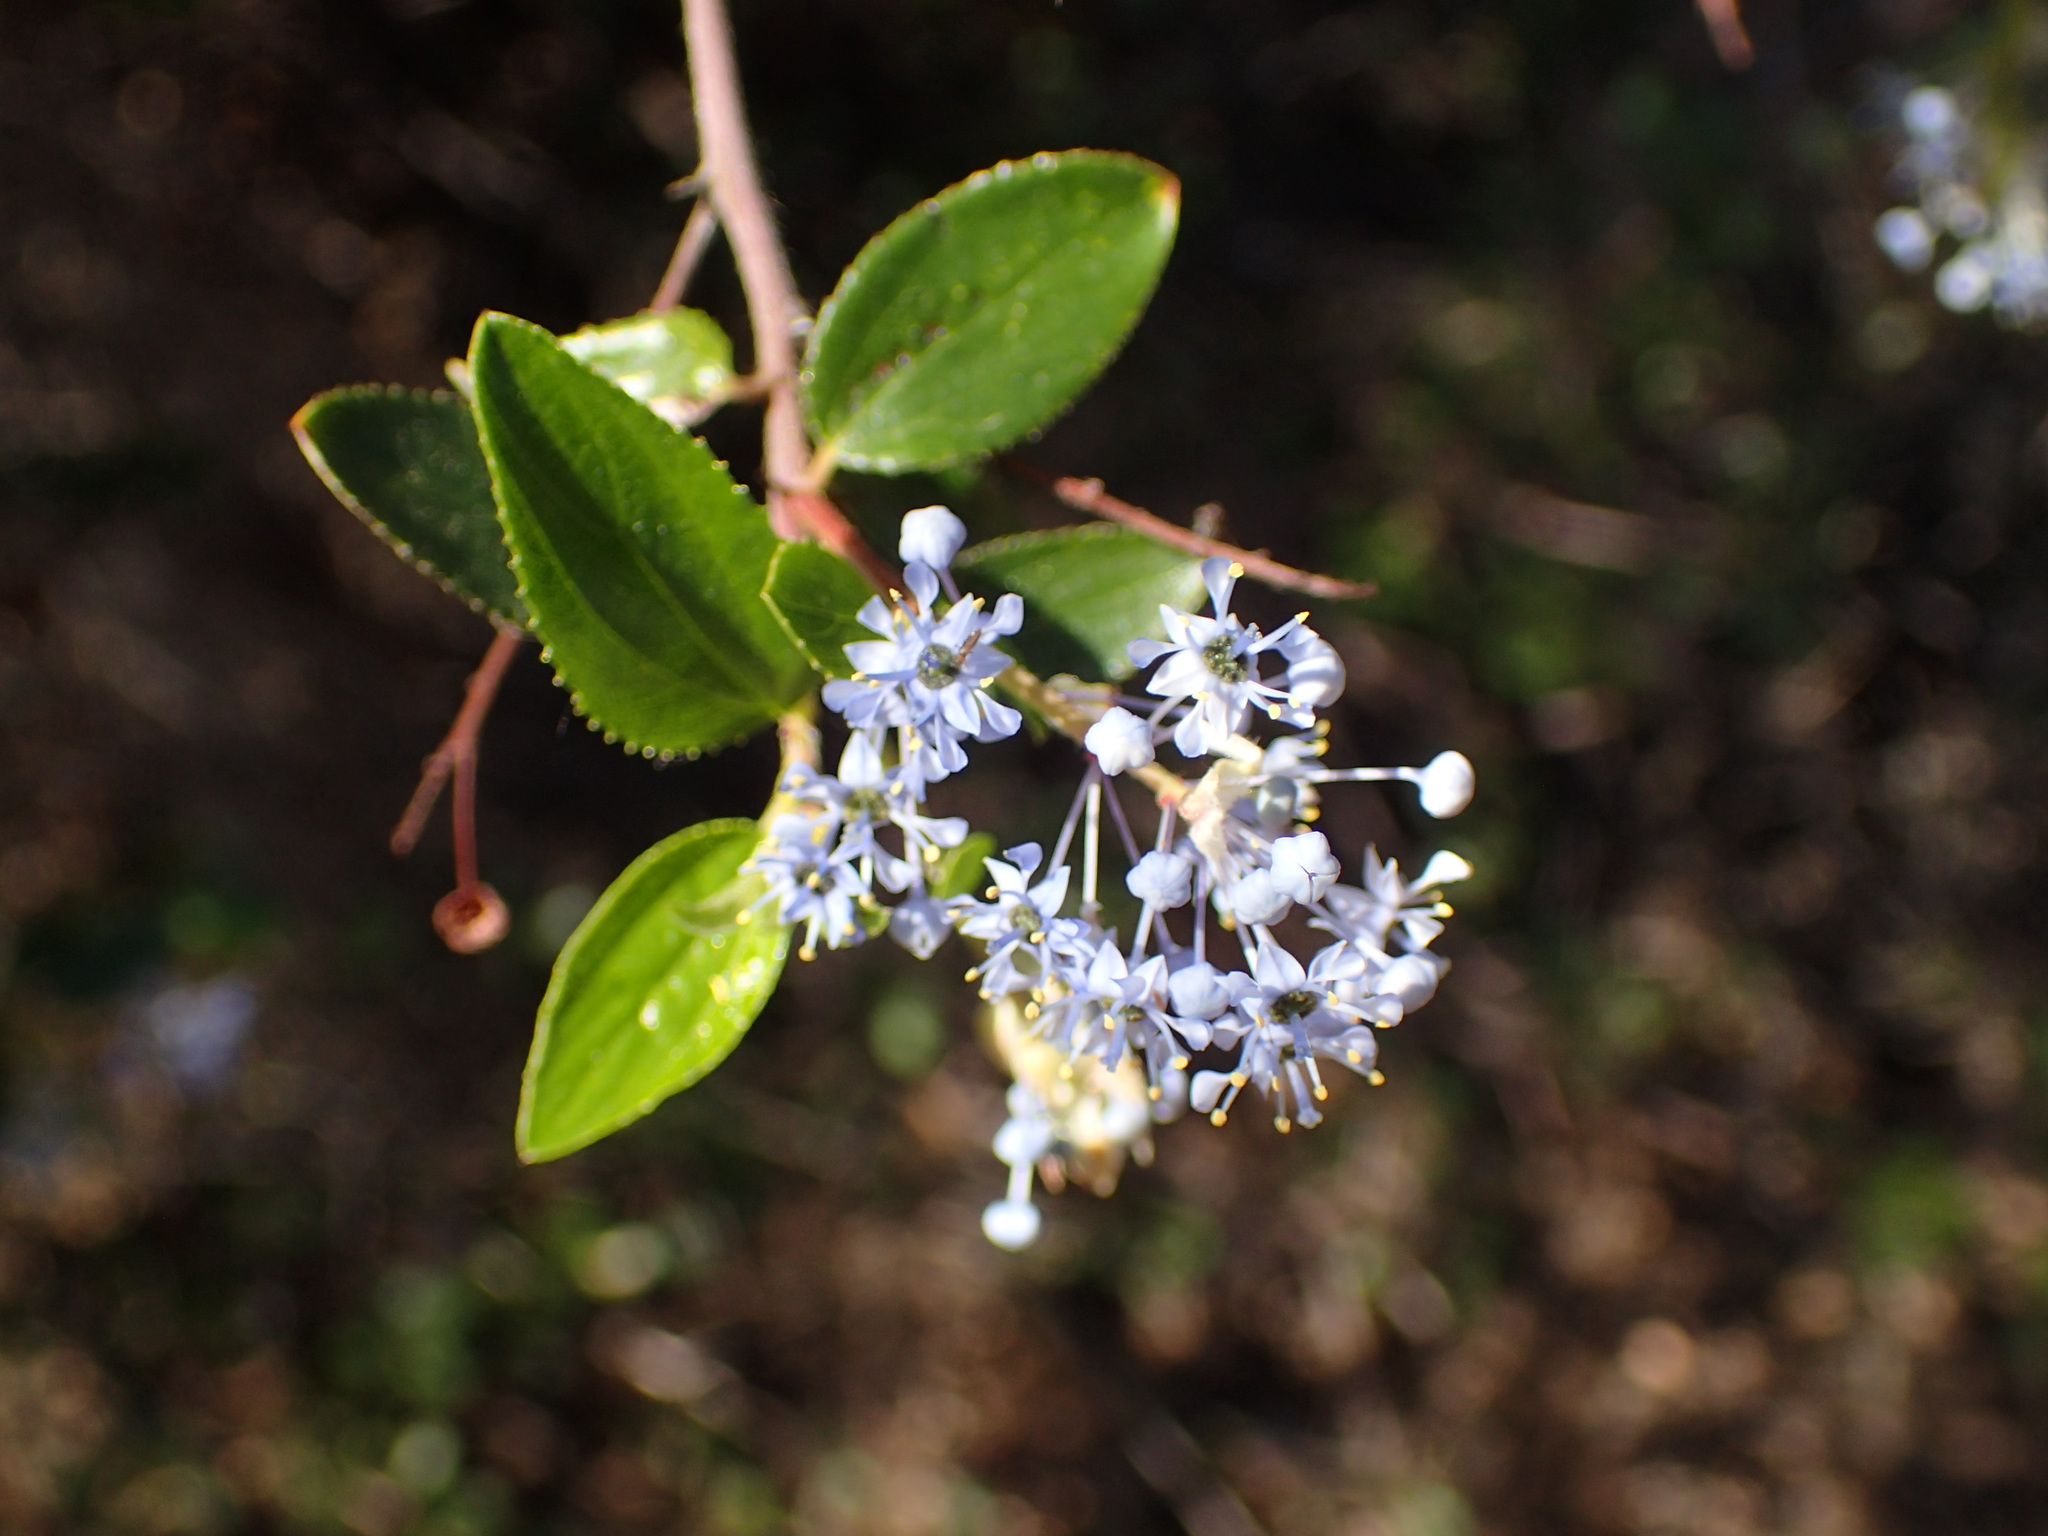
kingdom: Plantae
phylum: Tracheophyta
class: Magnoliopsida
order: Rosales
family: Rhamnaceae
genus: Ceanothus
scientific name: Ceanothus oliganthus
